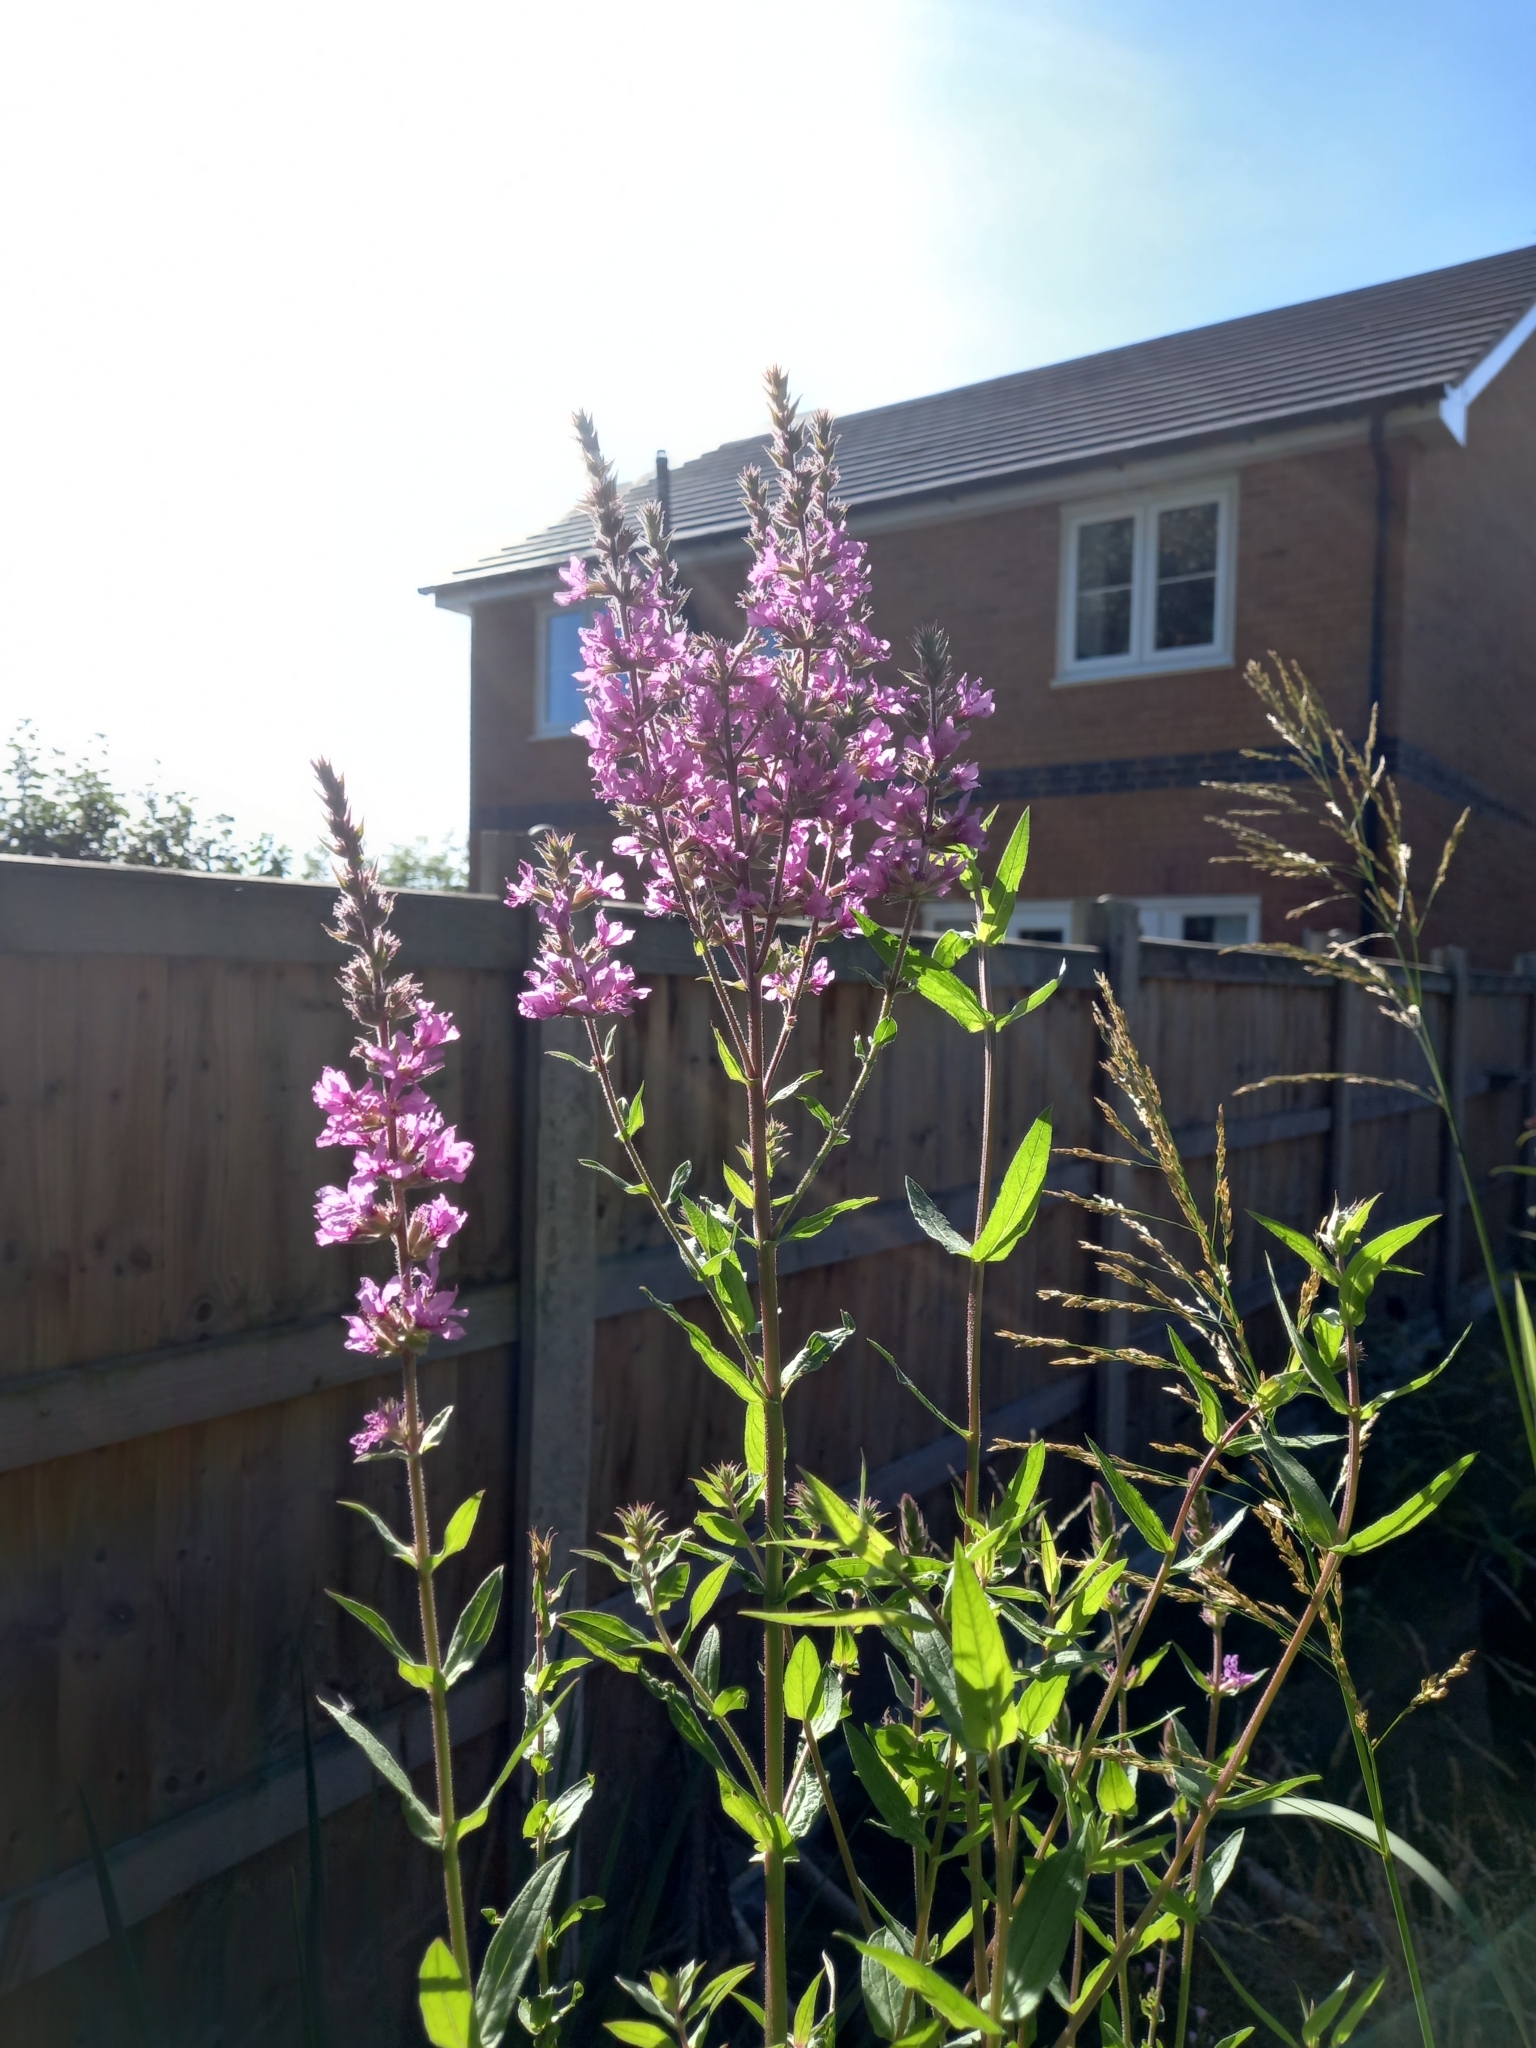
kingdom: Plantae
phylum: Tracheophyta
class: Magnoliopsida
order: Myrtales
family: Lythraceae
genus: Lythrum
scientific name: Lythrum salicaria
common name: Purple loosestrife
